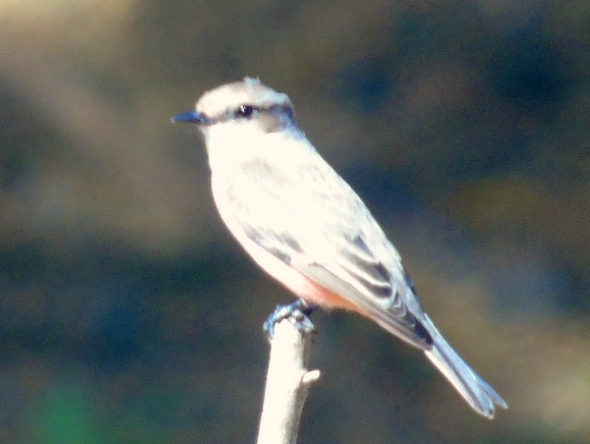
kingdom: Animalia
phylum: Chordata
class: Aves
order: Passeriformes
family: Tyrannidae
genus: Pyrocephalus
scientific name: Pyrocephalus rubinus
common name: Vermilion flycatcher
